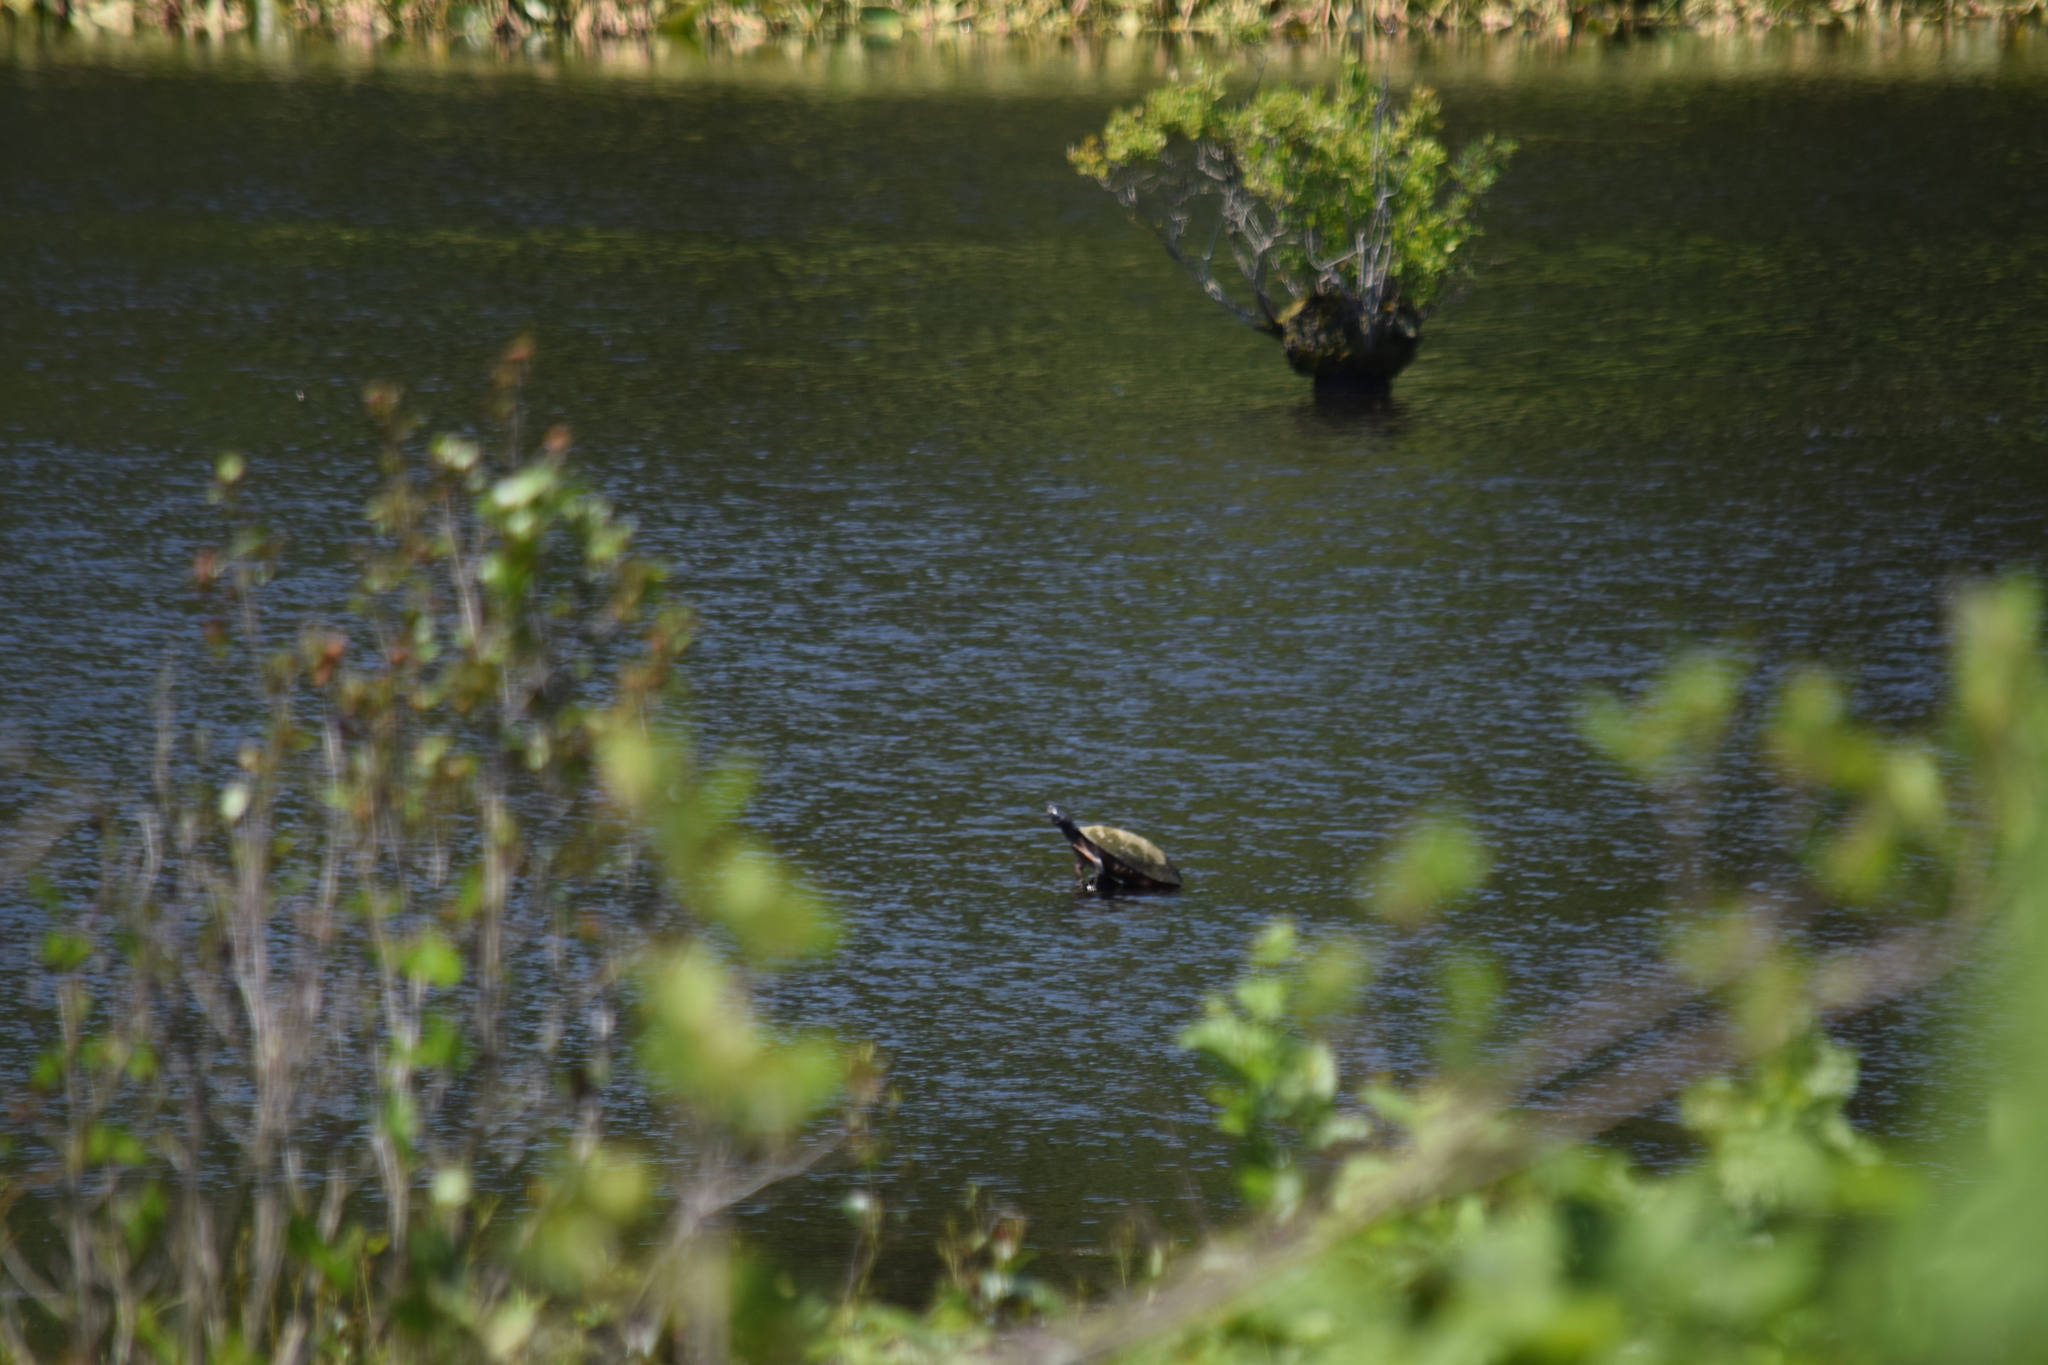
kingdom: Animalia
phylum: Chordata
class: Testudines
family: Emydidae
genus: Pseudemys
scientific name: Pseudemys rubriventris
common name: American red-bellied turtle
